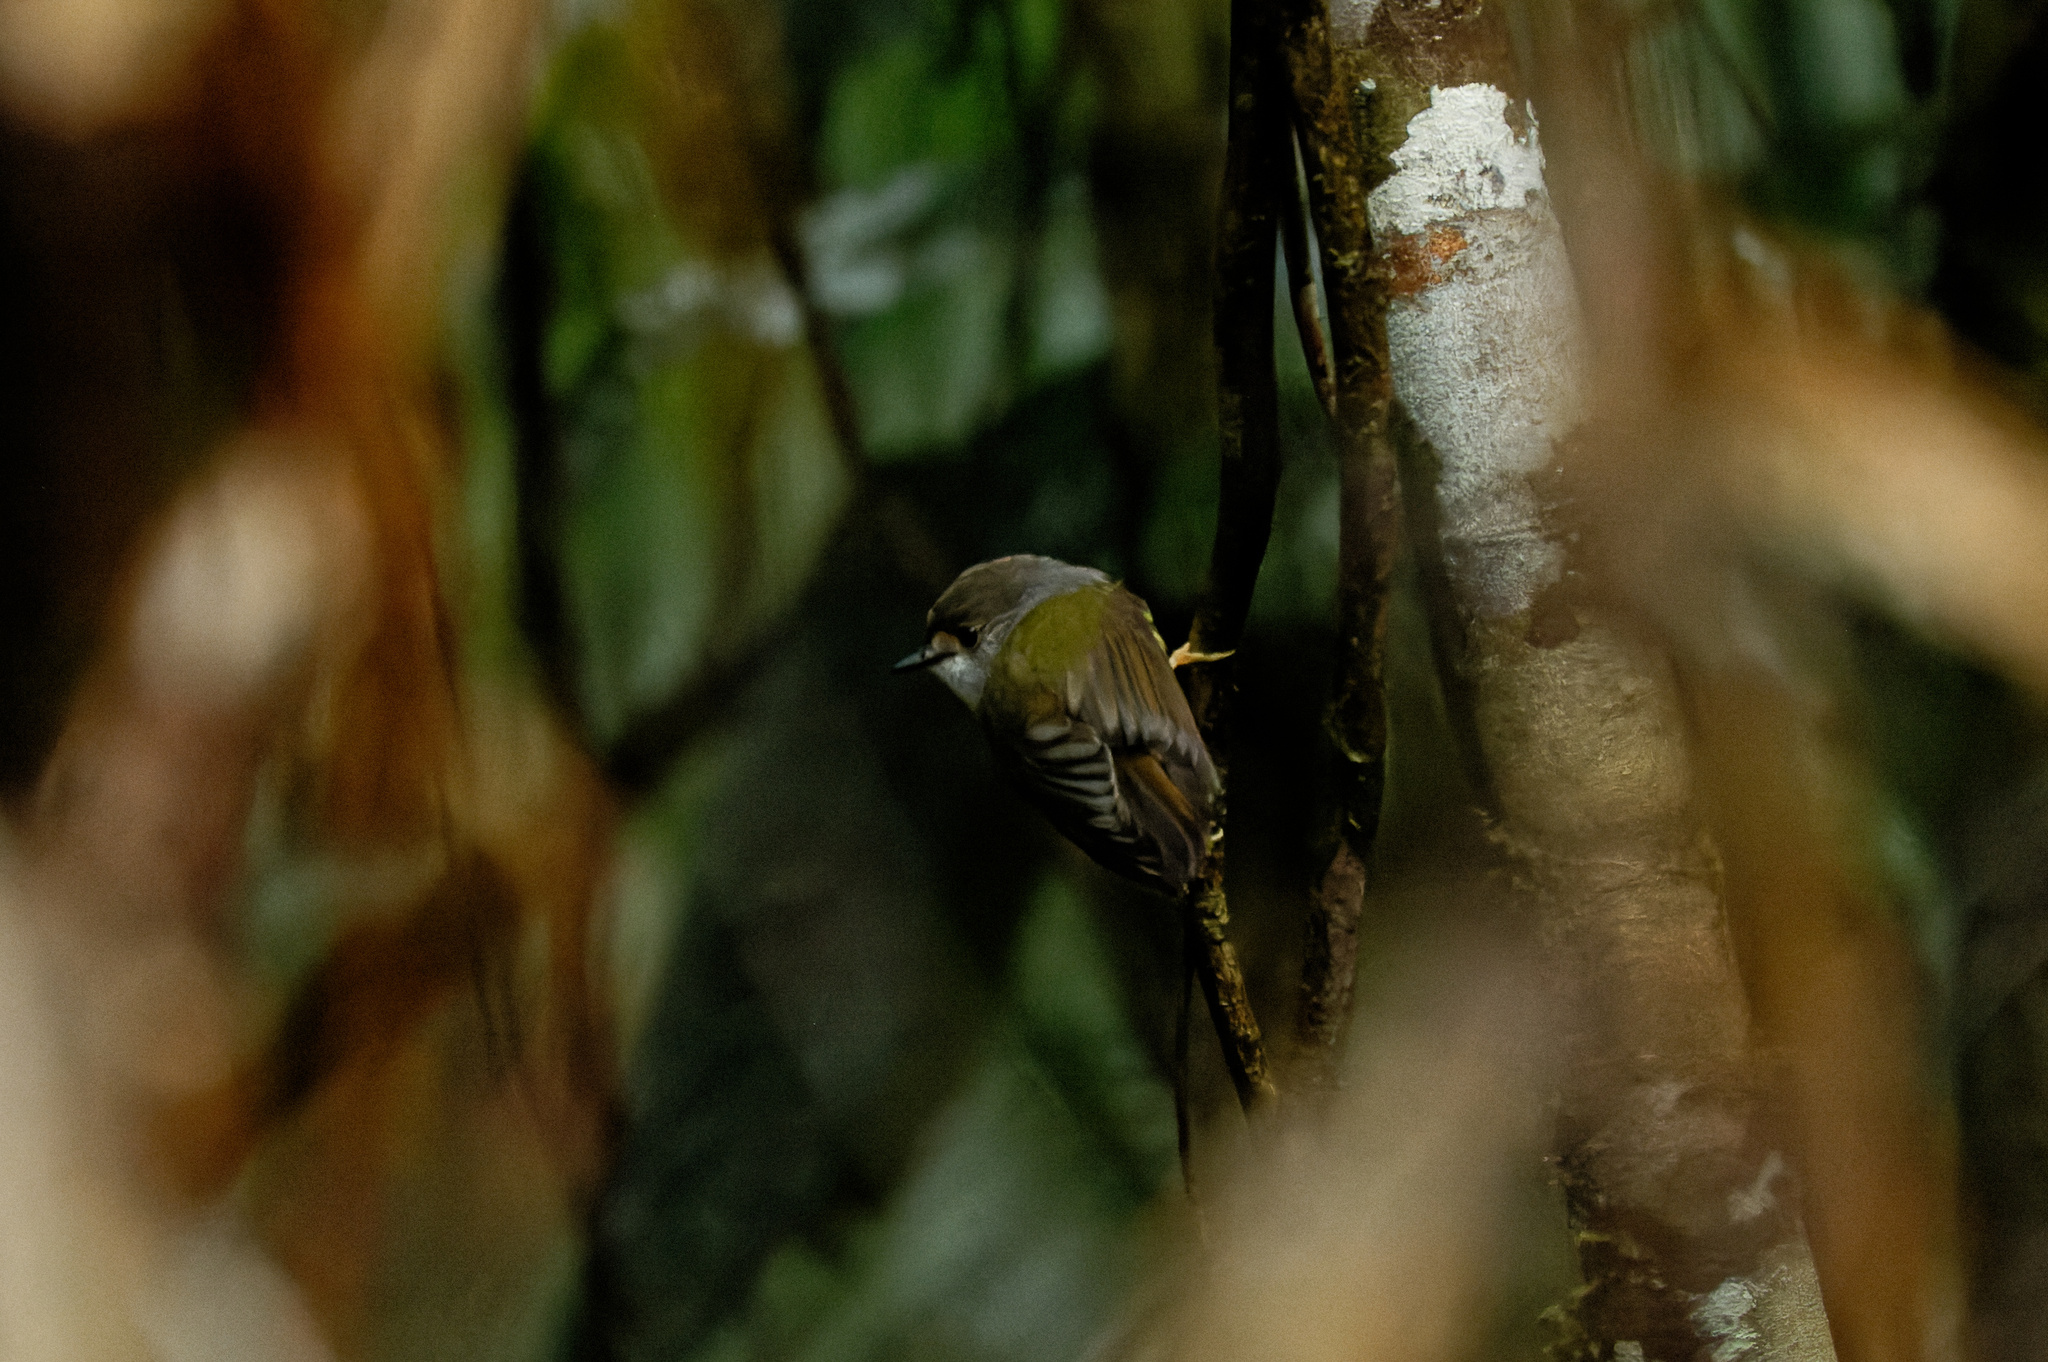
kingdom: Animalia
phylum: Chordata
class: Aves
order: Passeriformes
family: Petroicidae
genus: Eopsaltria
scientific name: Eopsaltria
